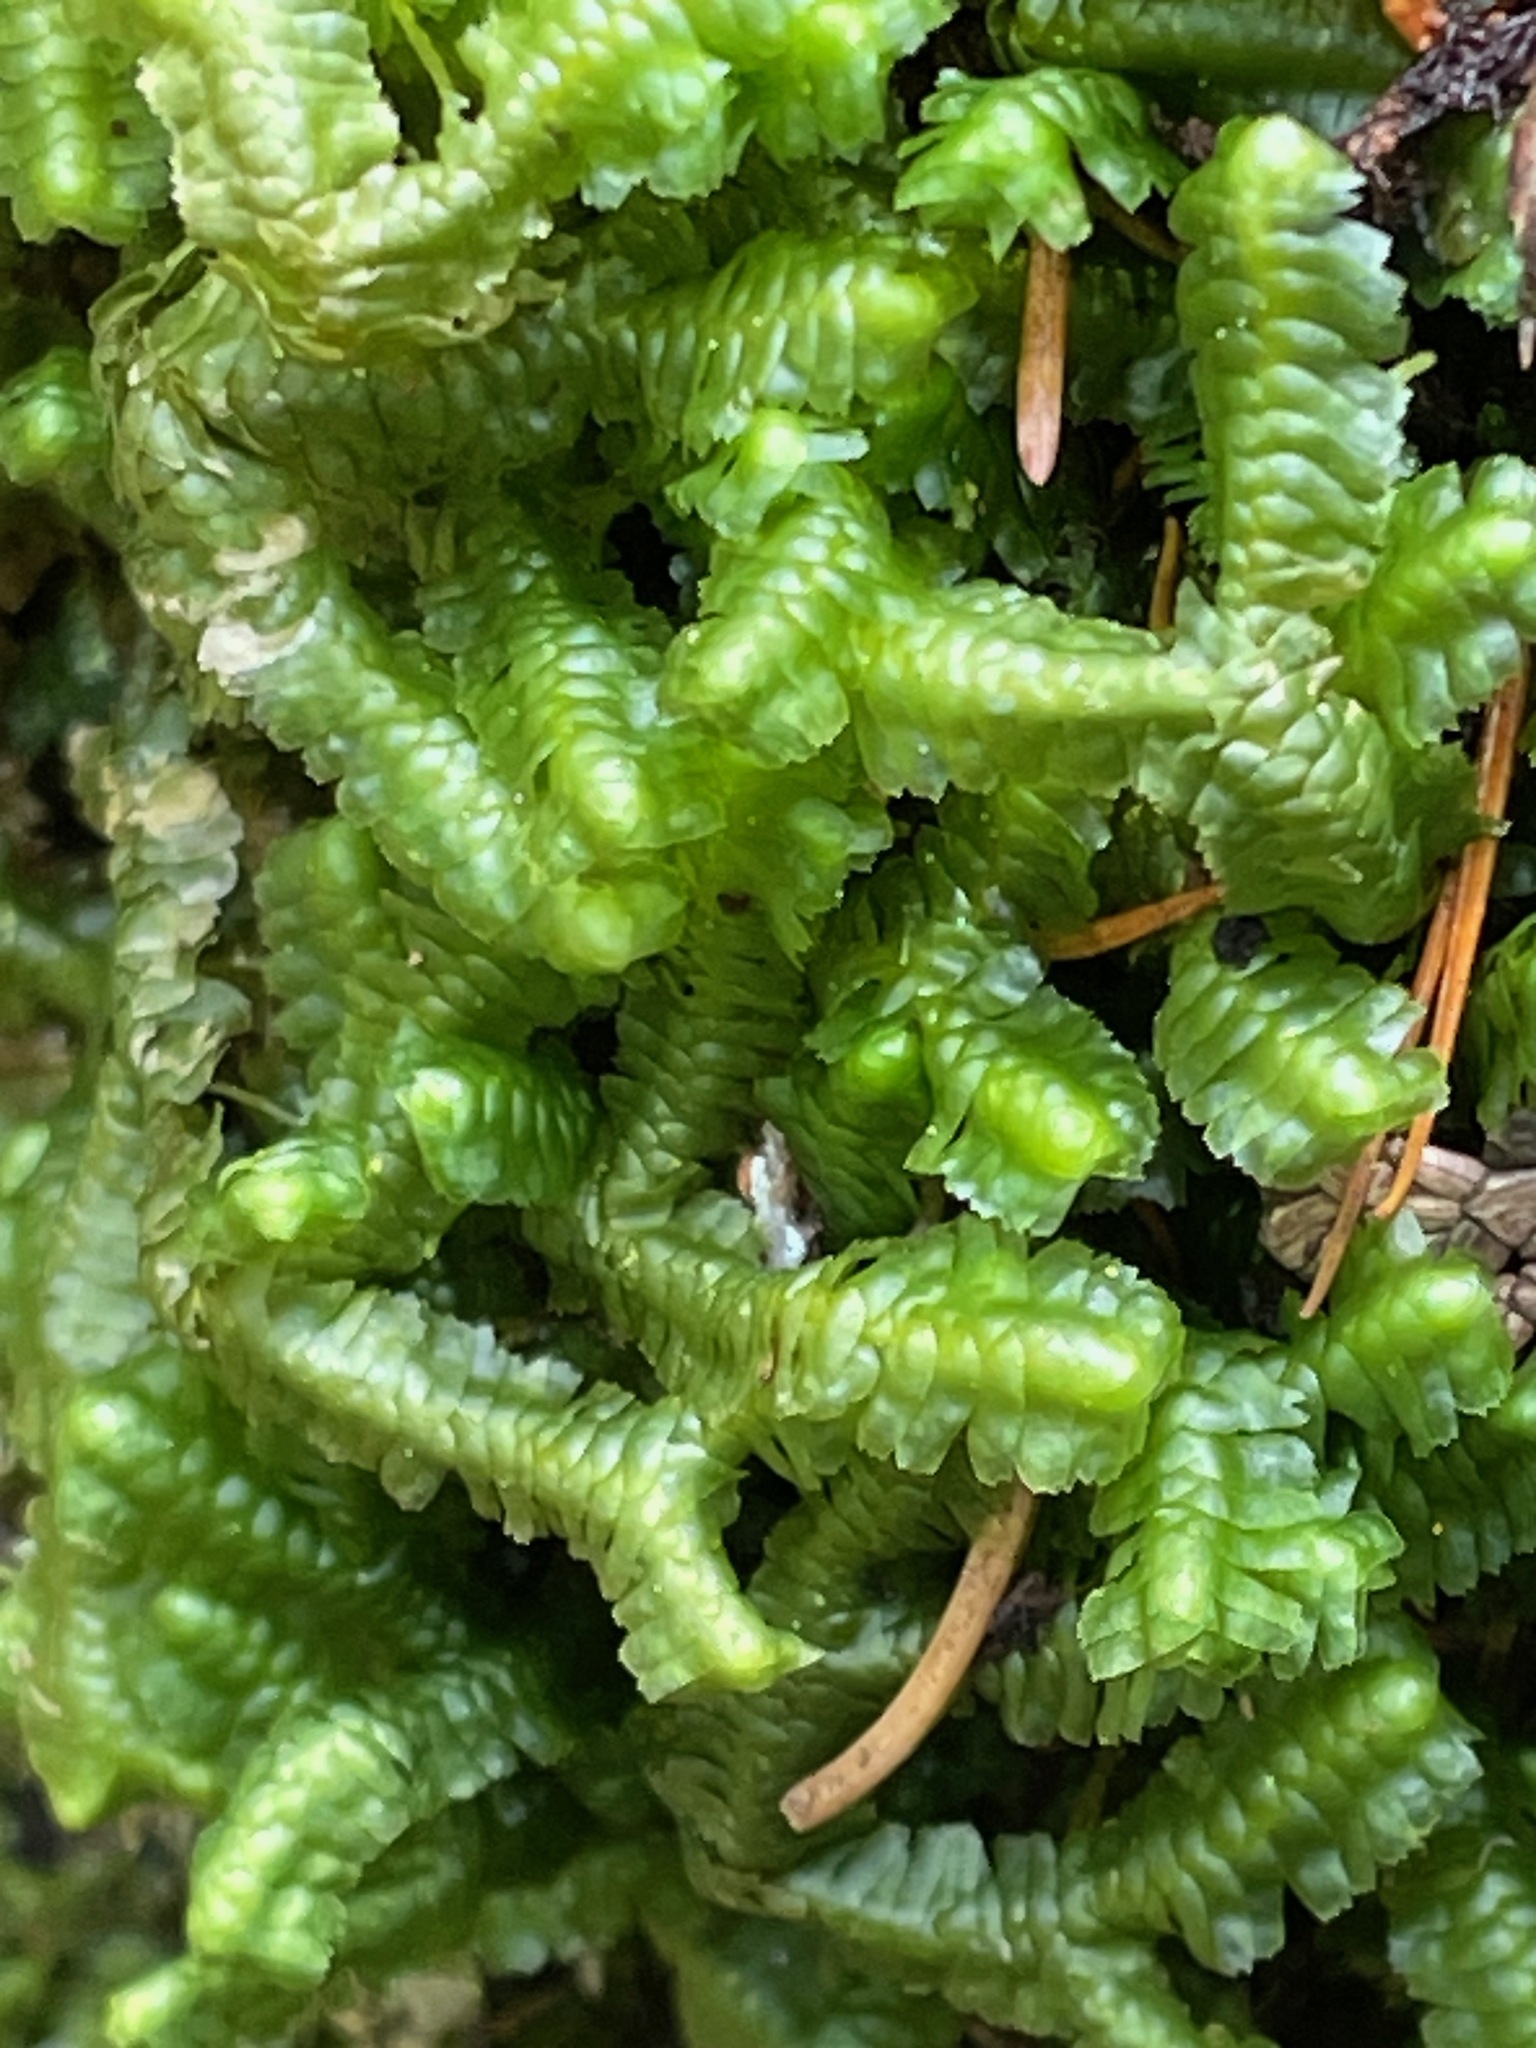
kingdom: Plantae
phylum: Marchantiophyta
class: Jungermanniopsida
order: Jungermanniales
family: Lepidoziaceae
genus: Bazzania
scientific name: Bazzania trilobata
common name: Three-lobed whipwort
